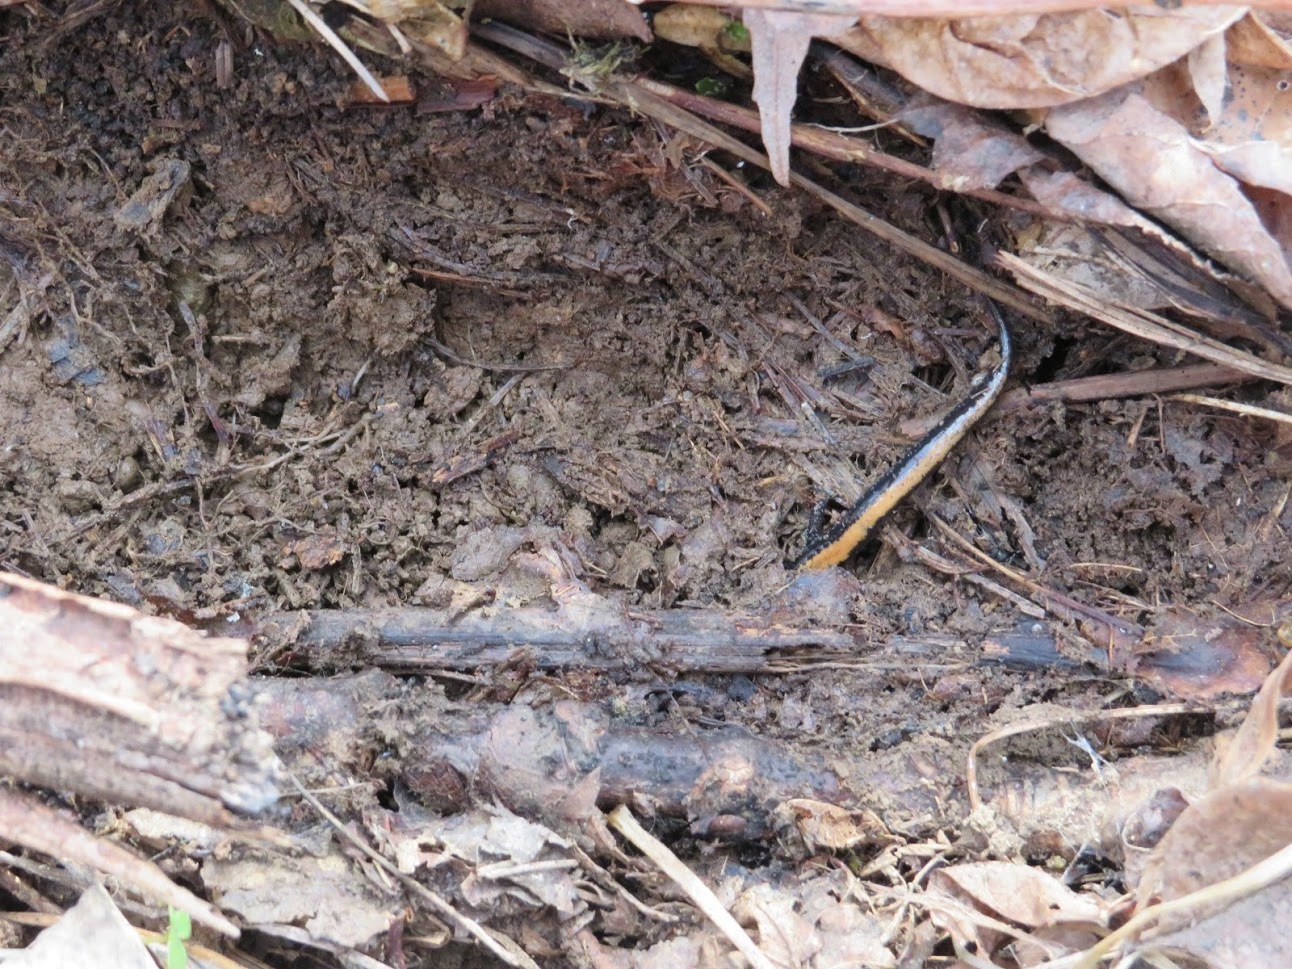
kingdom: Animalia
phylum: Chordata
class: Amphibia
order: Caudata
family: Plethodontidae
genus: Plethodon
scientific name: Plethodon cinereus
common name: Redback salamander
